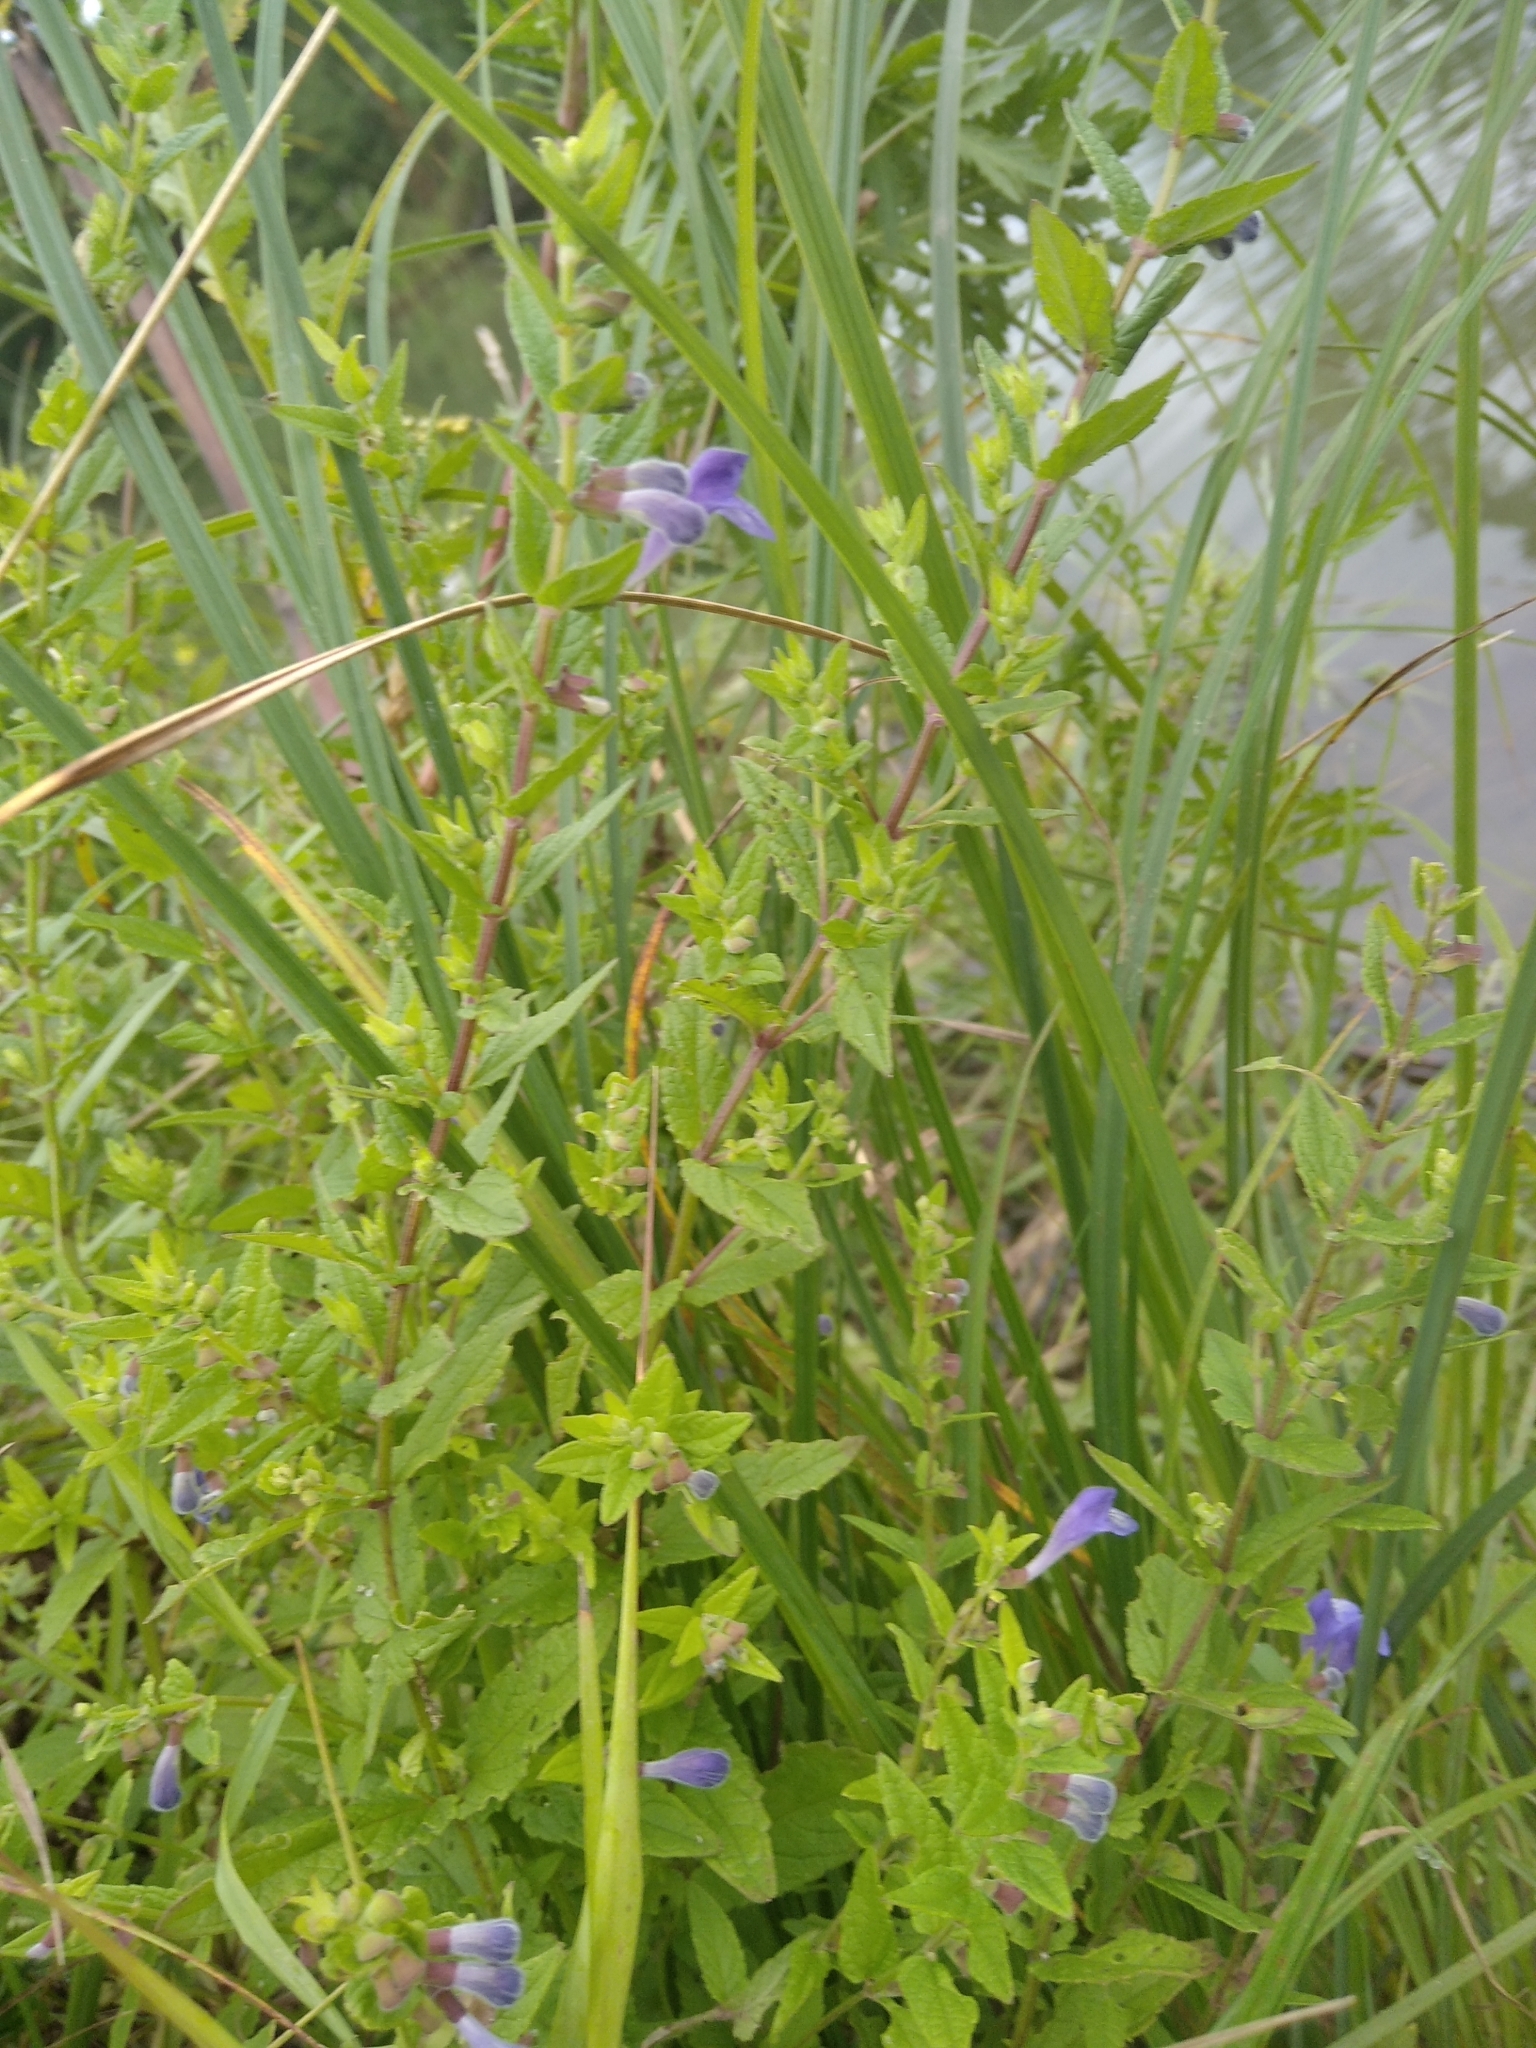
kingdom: Plantae
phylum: Tracheophyta
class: Magnoliopsida
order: Lamiales
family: Lamiaceae
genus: Scutellaria
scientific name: Scutellaria galericulata
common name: Skullcap
